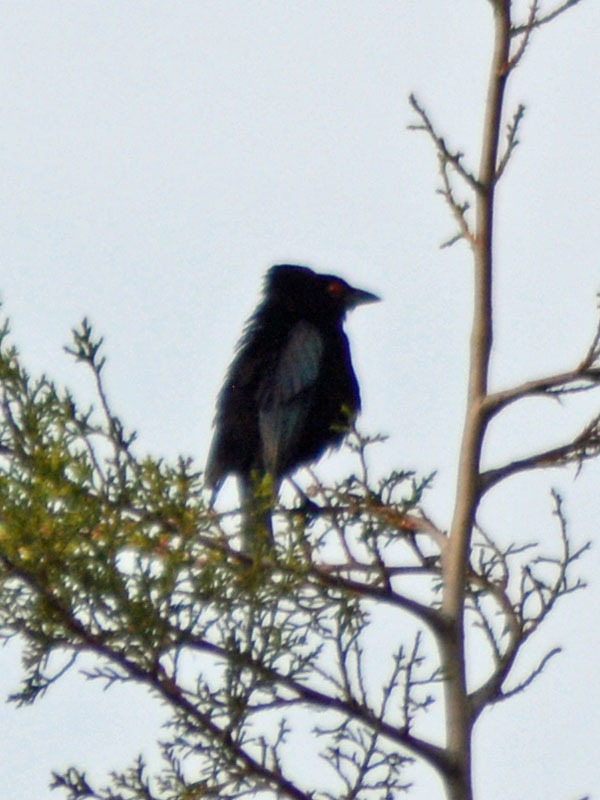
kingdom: Animalia
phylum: Chordata
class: Aves
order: Passeriformes
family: Icteridae
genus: Molothrus
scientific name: Molothrus aeneus
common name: Bronzed cowbird
